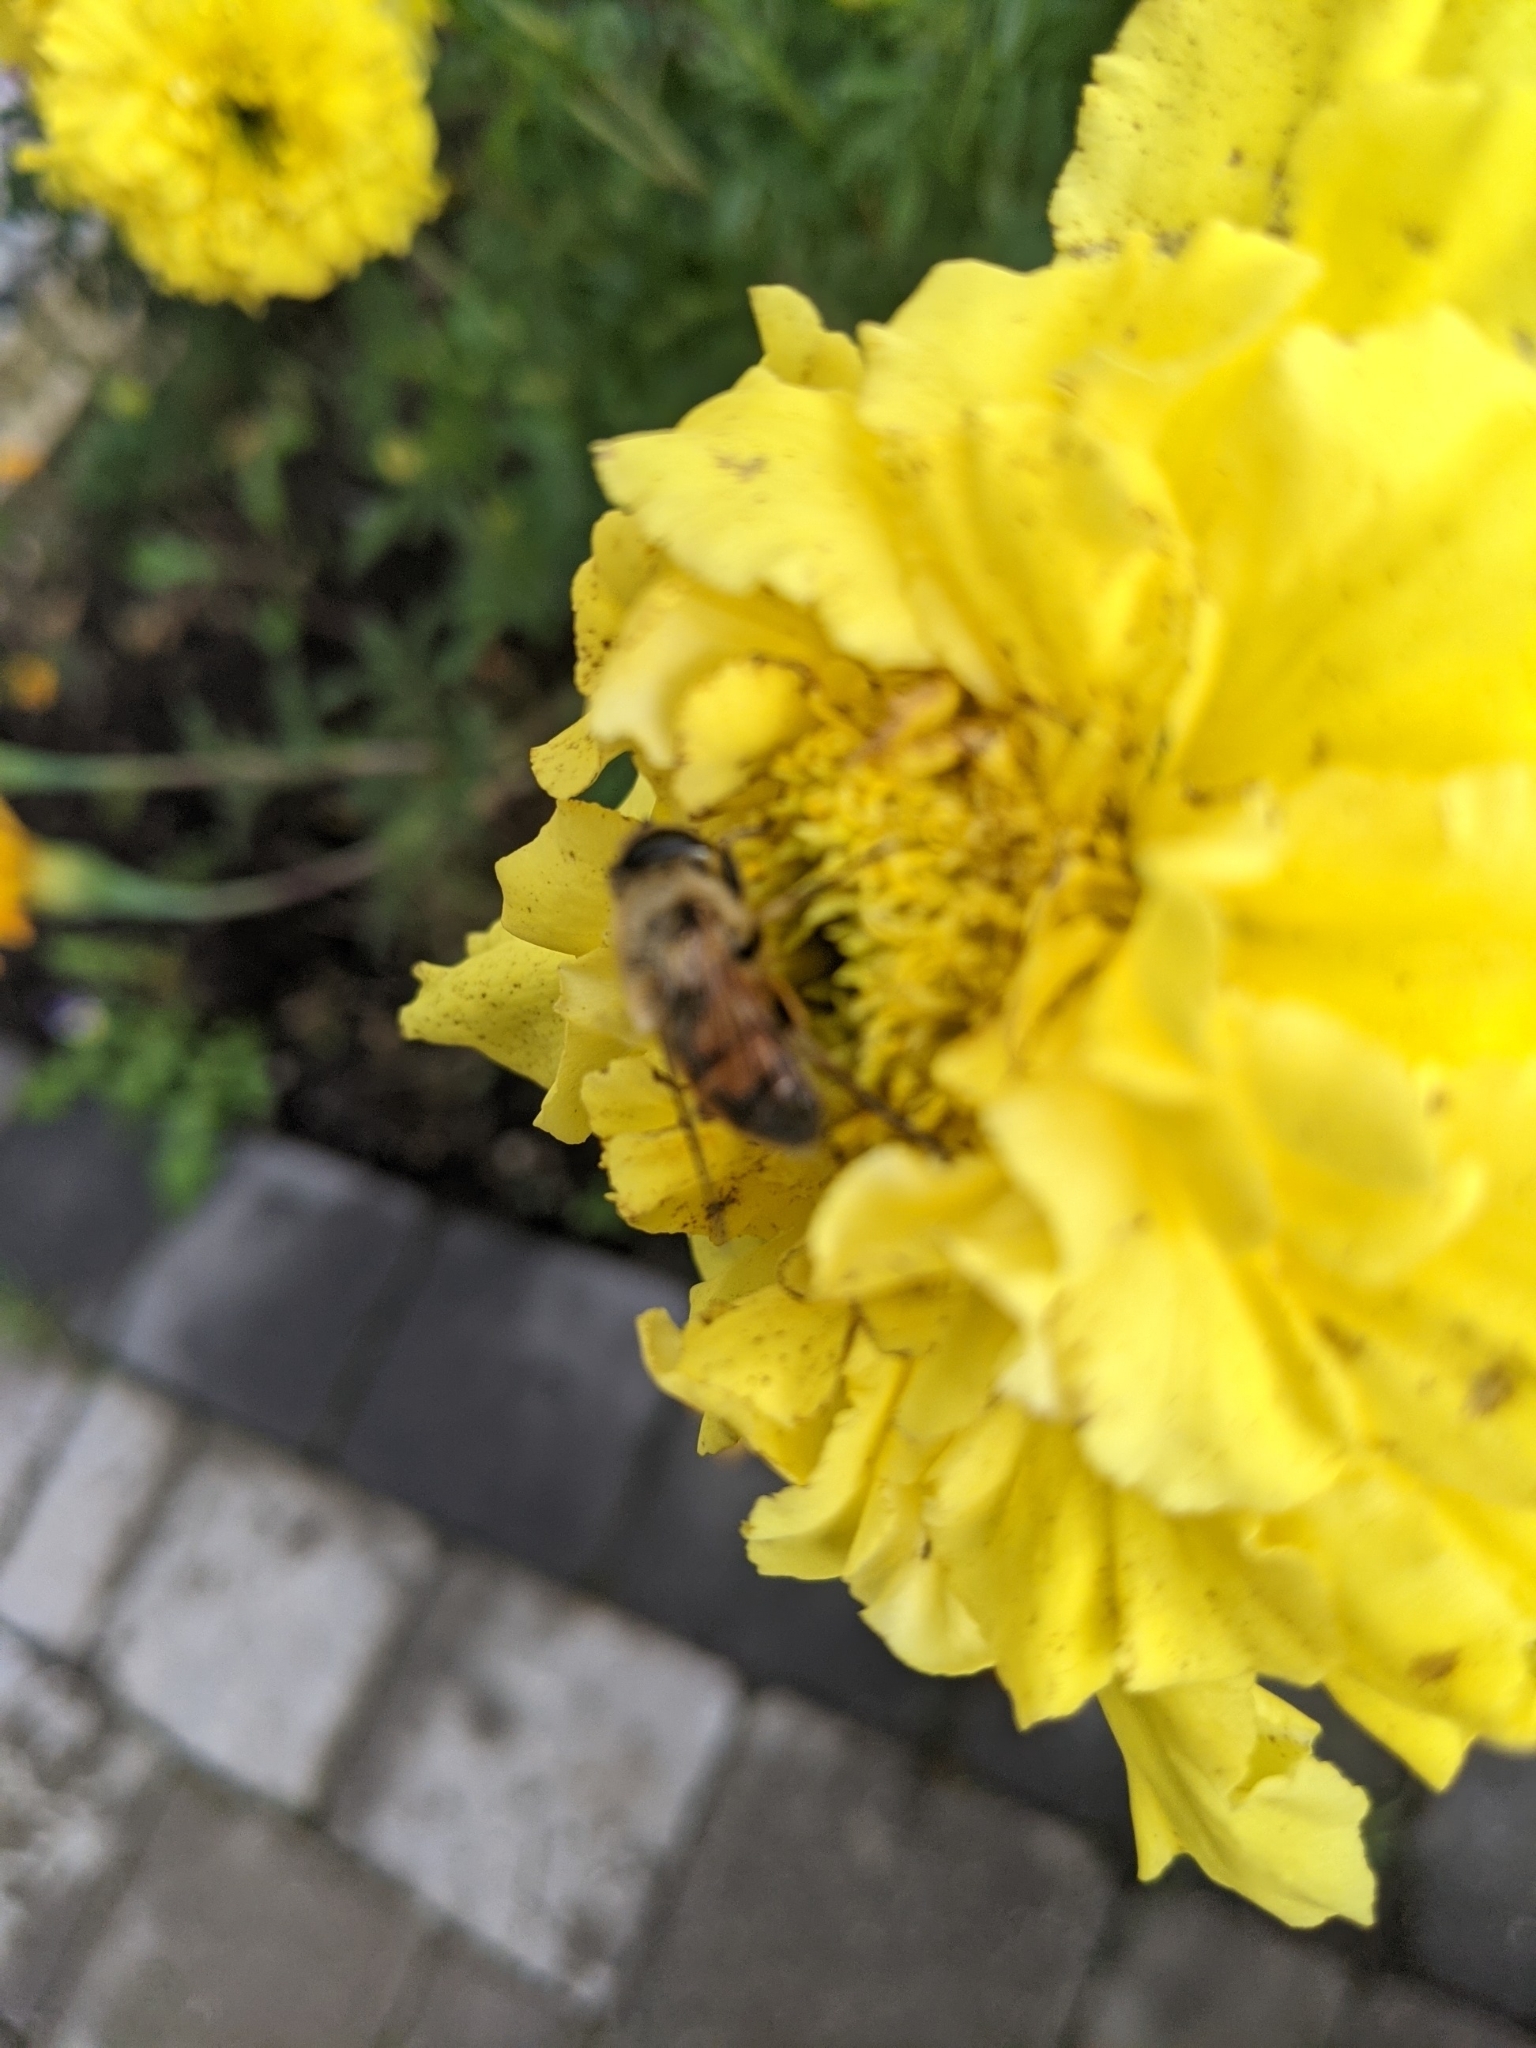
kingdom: Animalia
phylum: Arthropoda
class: Insecta
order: Diptera
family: Syrphidae
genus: Eristalis
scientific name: Eristalis tenax
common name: Drone fly
